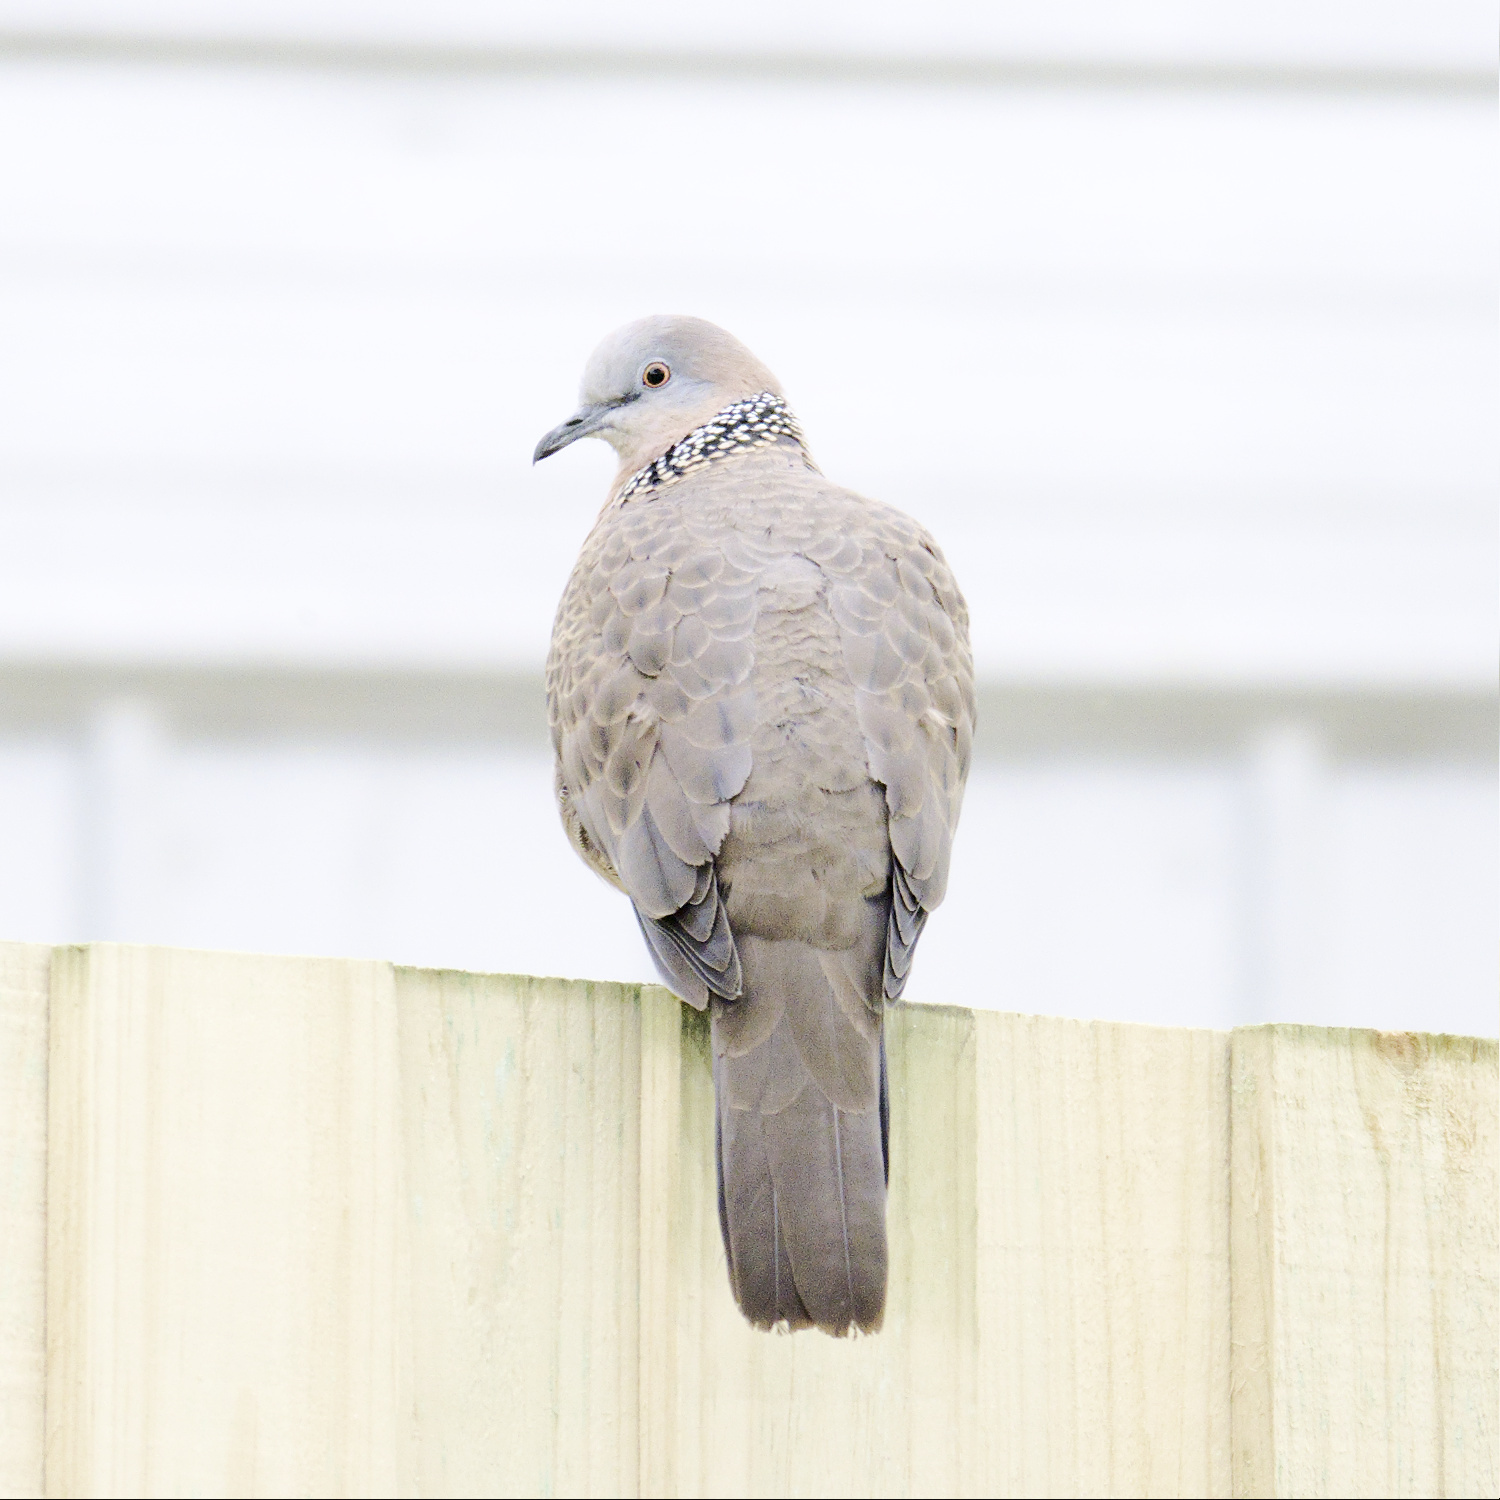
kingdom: Animalia
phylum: Chordata
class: Aves
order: Columbiformes
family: Columbidae
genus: Spilopelia
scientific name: Spilopelia chinensis
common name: Spotted dove
